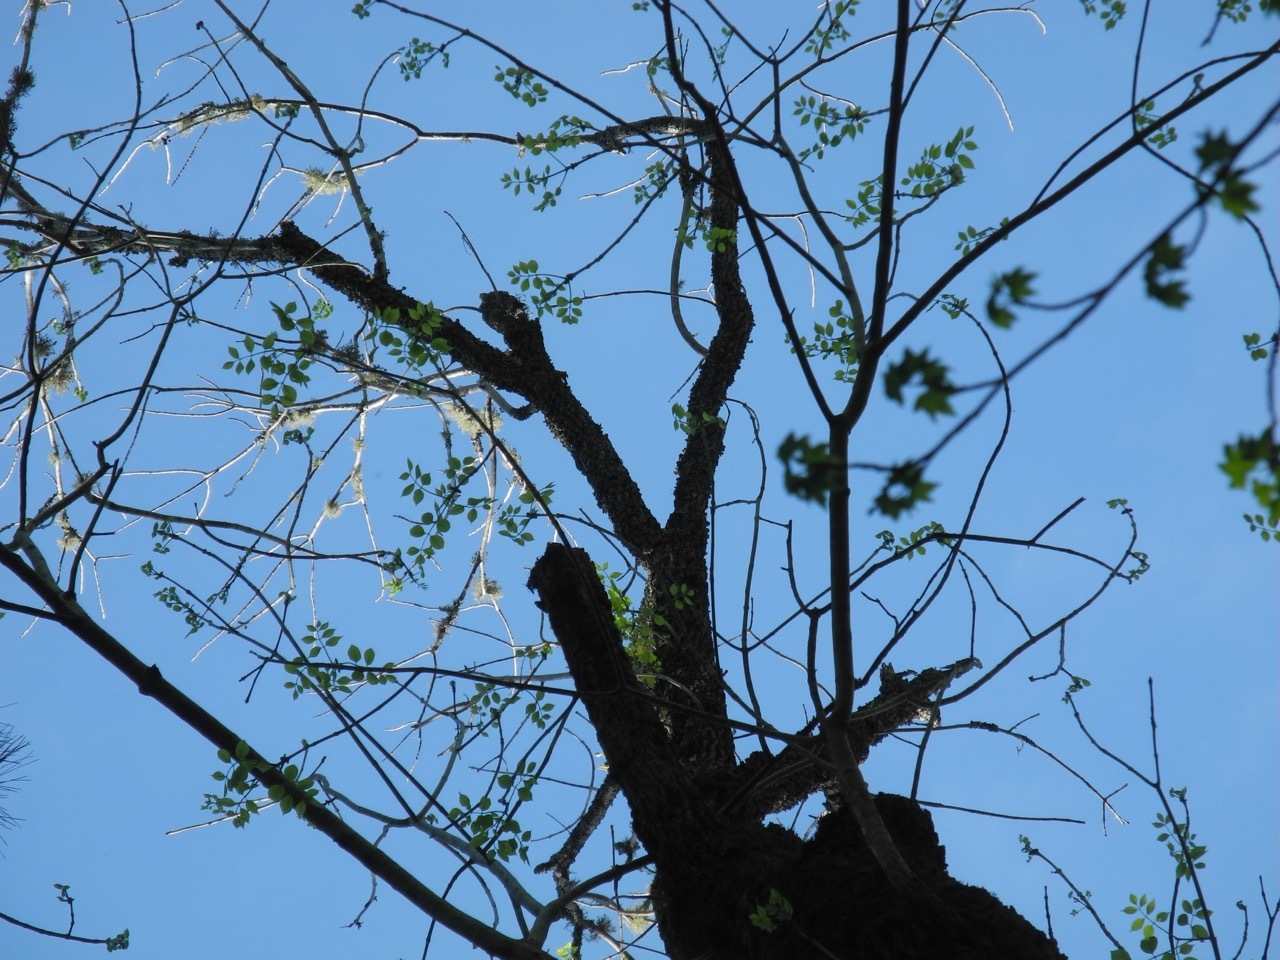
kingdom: Animalia
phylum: Arthropoda
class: Insecta
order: Coleoptera
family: Buprestidae
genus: Agrilus
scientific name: Agrilus planipennis
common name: Emerald ash borer
